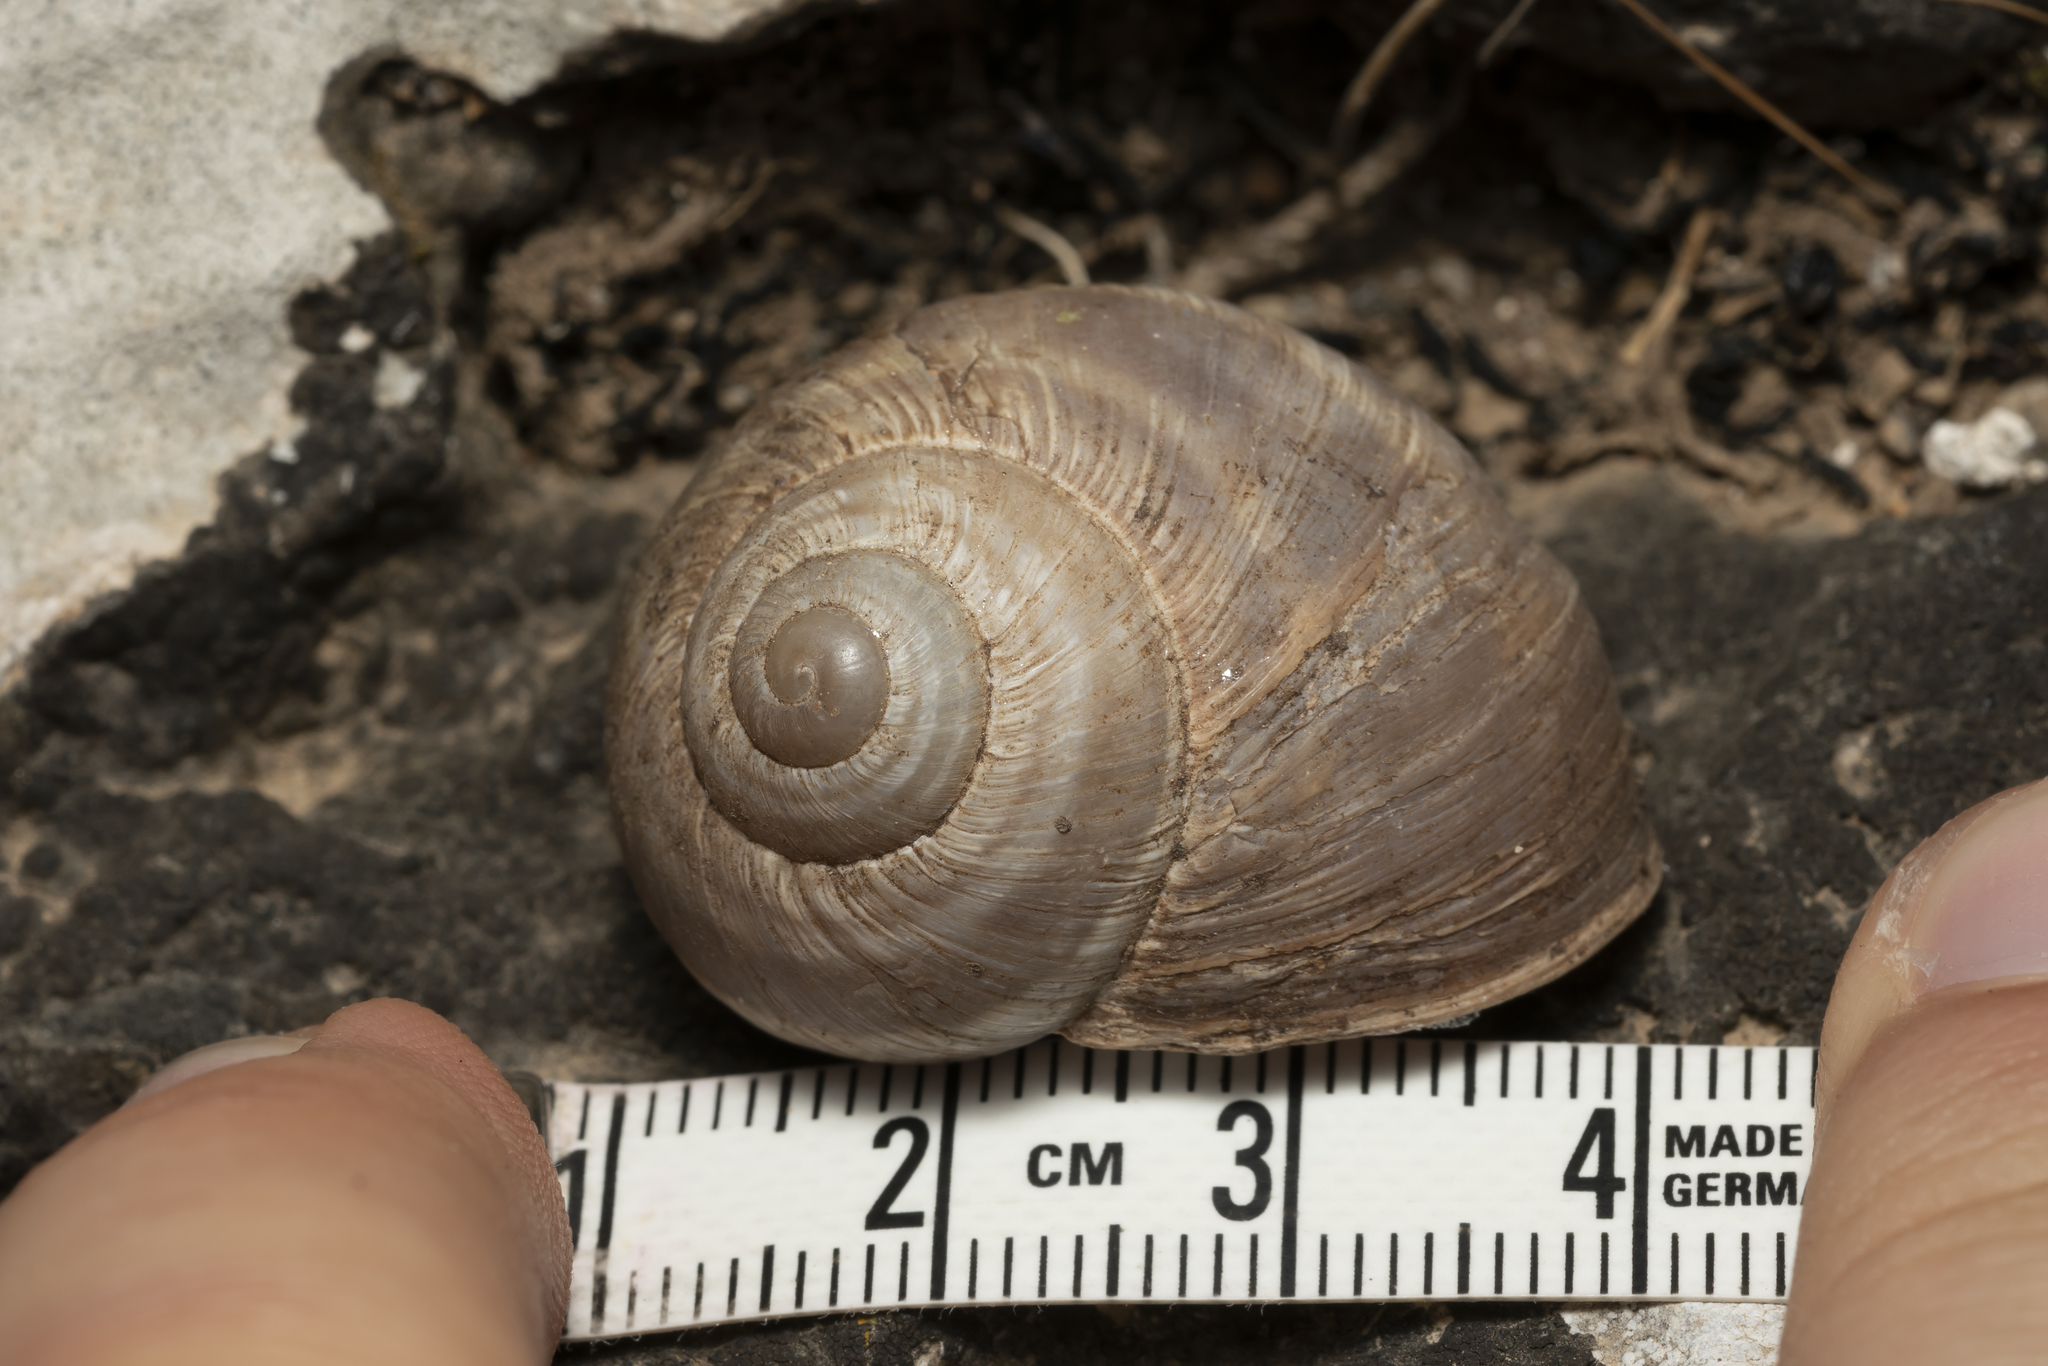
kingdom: Animalia
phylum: Mollusca
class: Gastropoda
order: Stylommatophora
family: Helicidae
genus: Helix
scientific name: Helix fathallae
